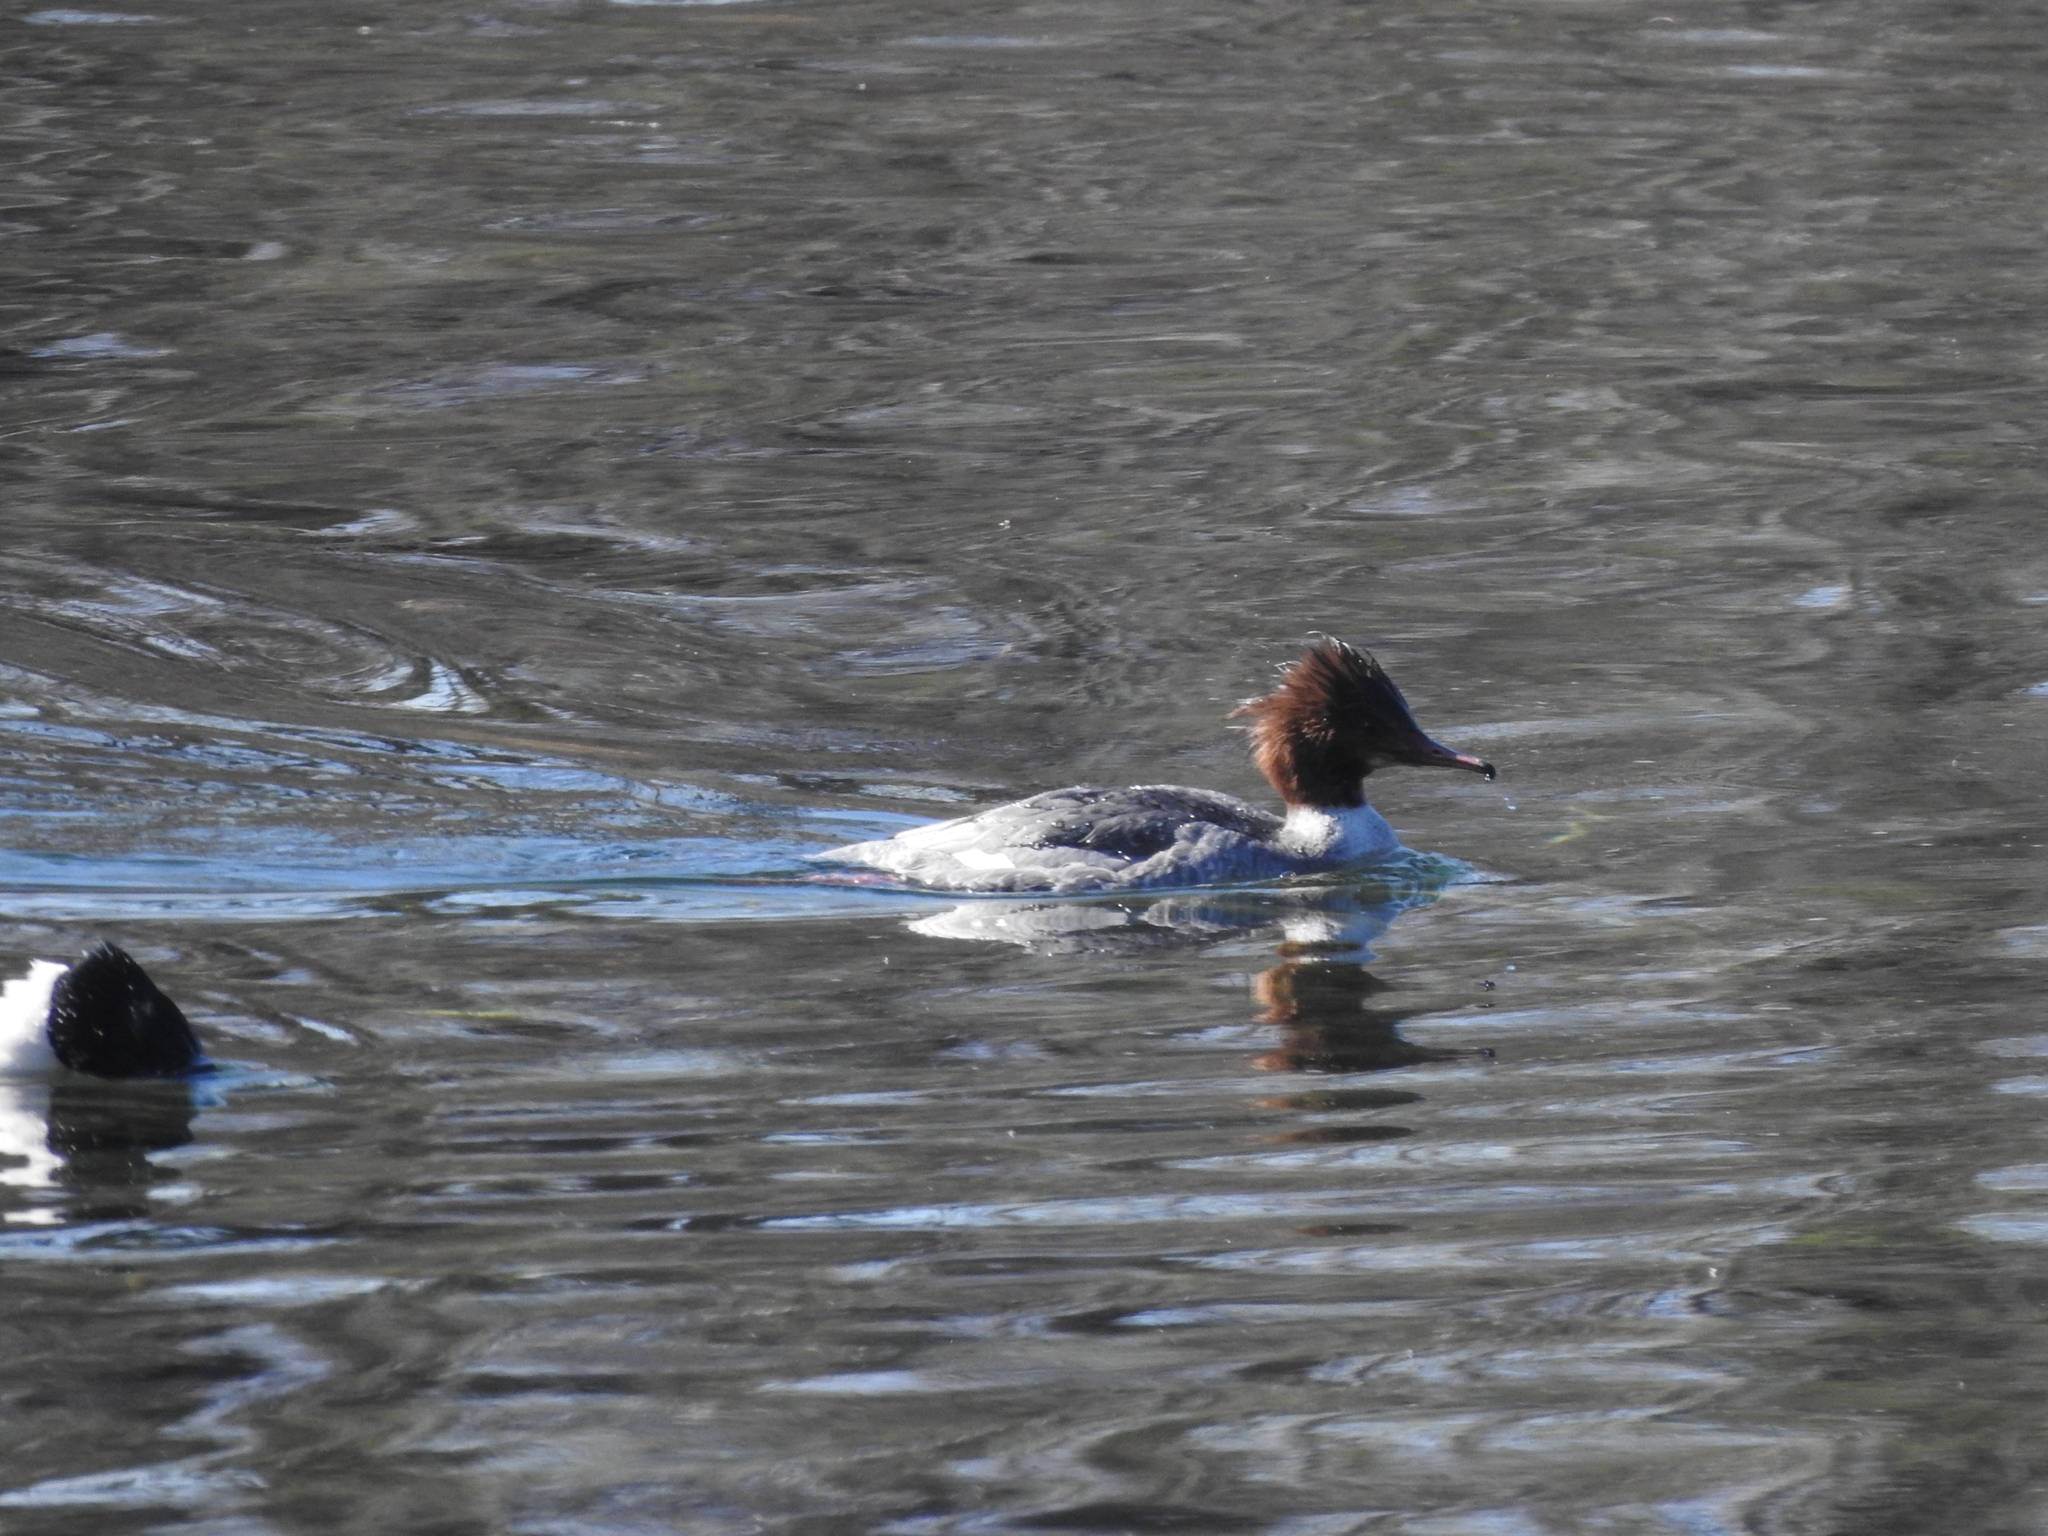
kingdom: Animalia
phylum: Chordata
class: Aves
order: Anseriformes
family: Anatidae
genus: Mergus
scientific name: Mergus merganser
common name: Common merganser
